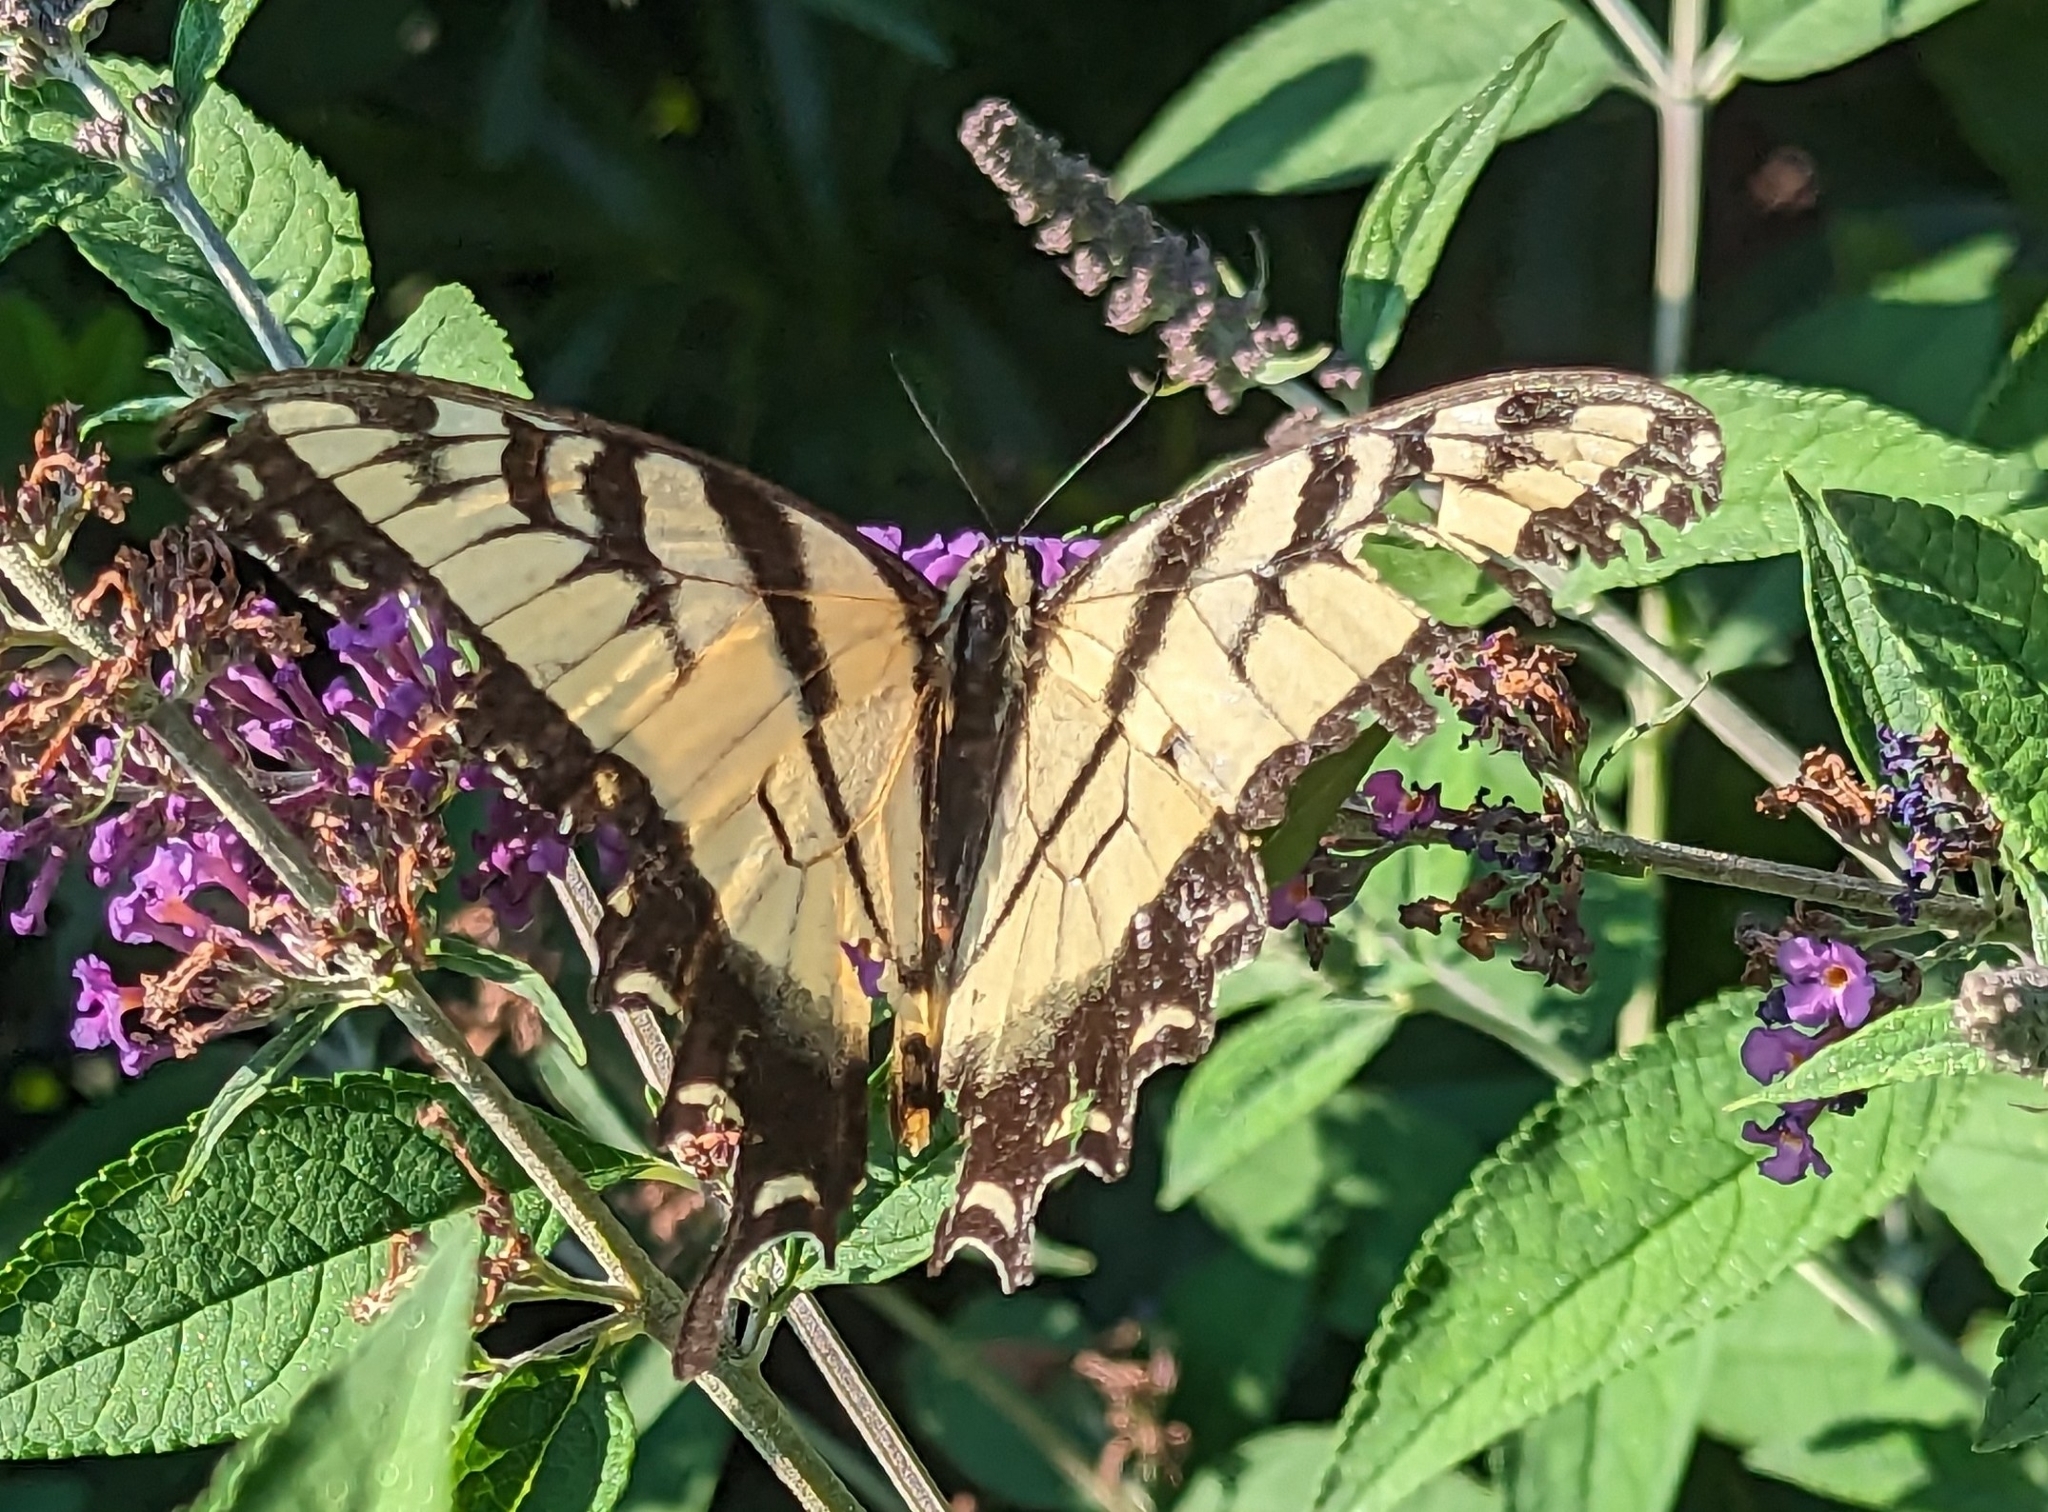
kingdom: Animalia
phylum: Arthropoda
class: Insecta
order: Lepidoptera
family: Papilionidae
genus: Papilio
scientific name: Papilio glaucus
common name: Tiger swallowtail
